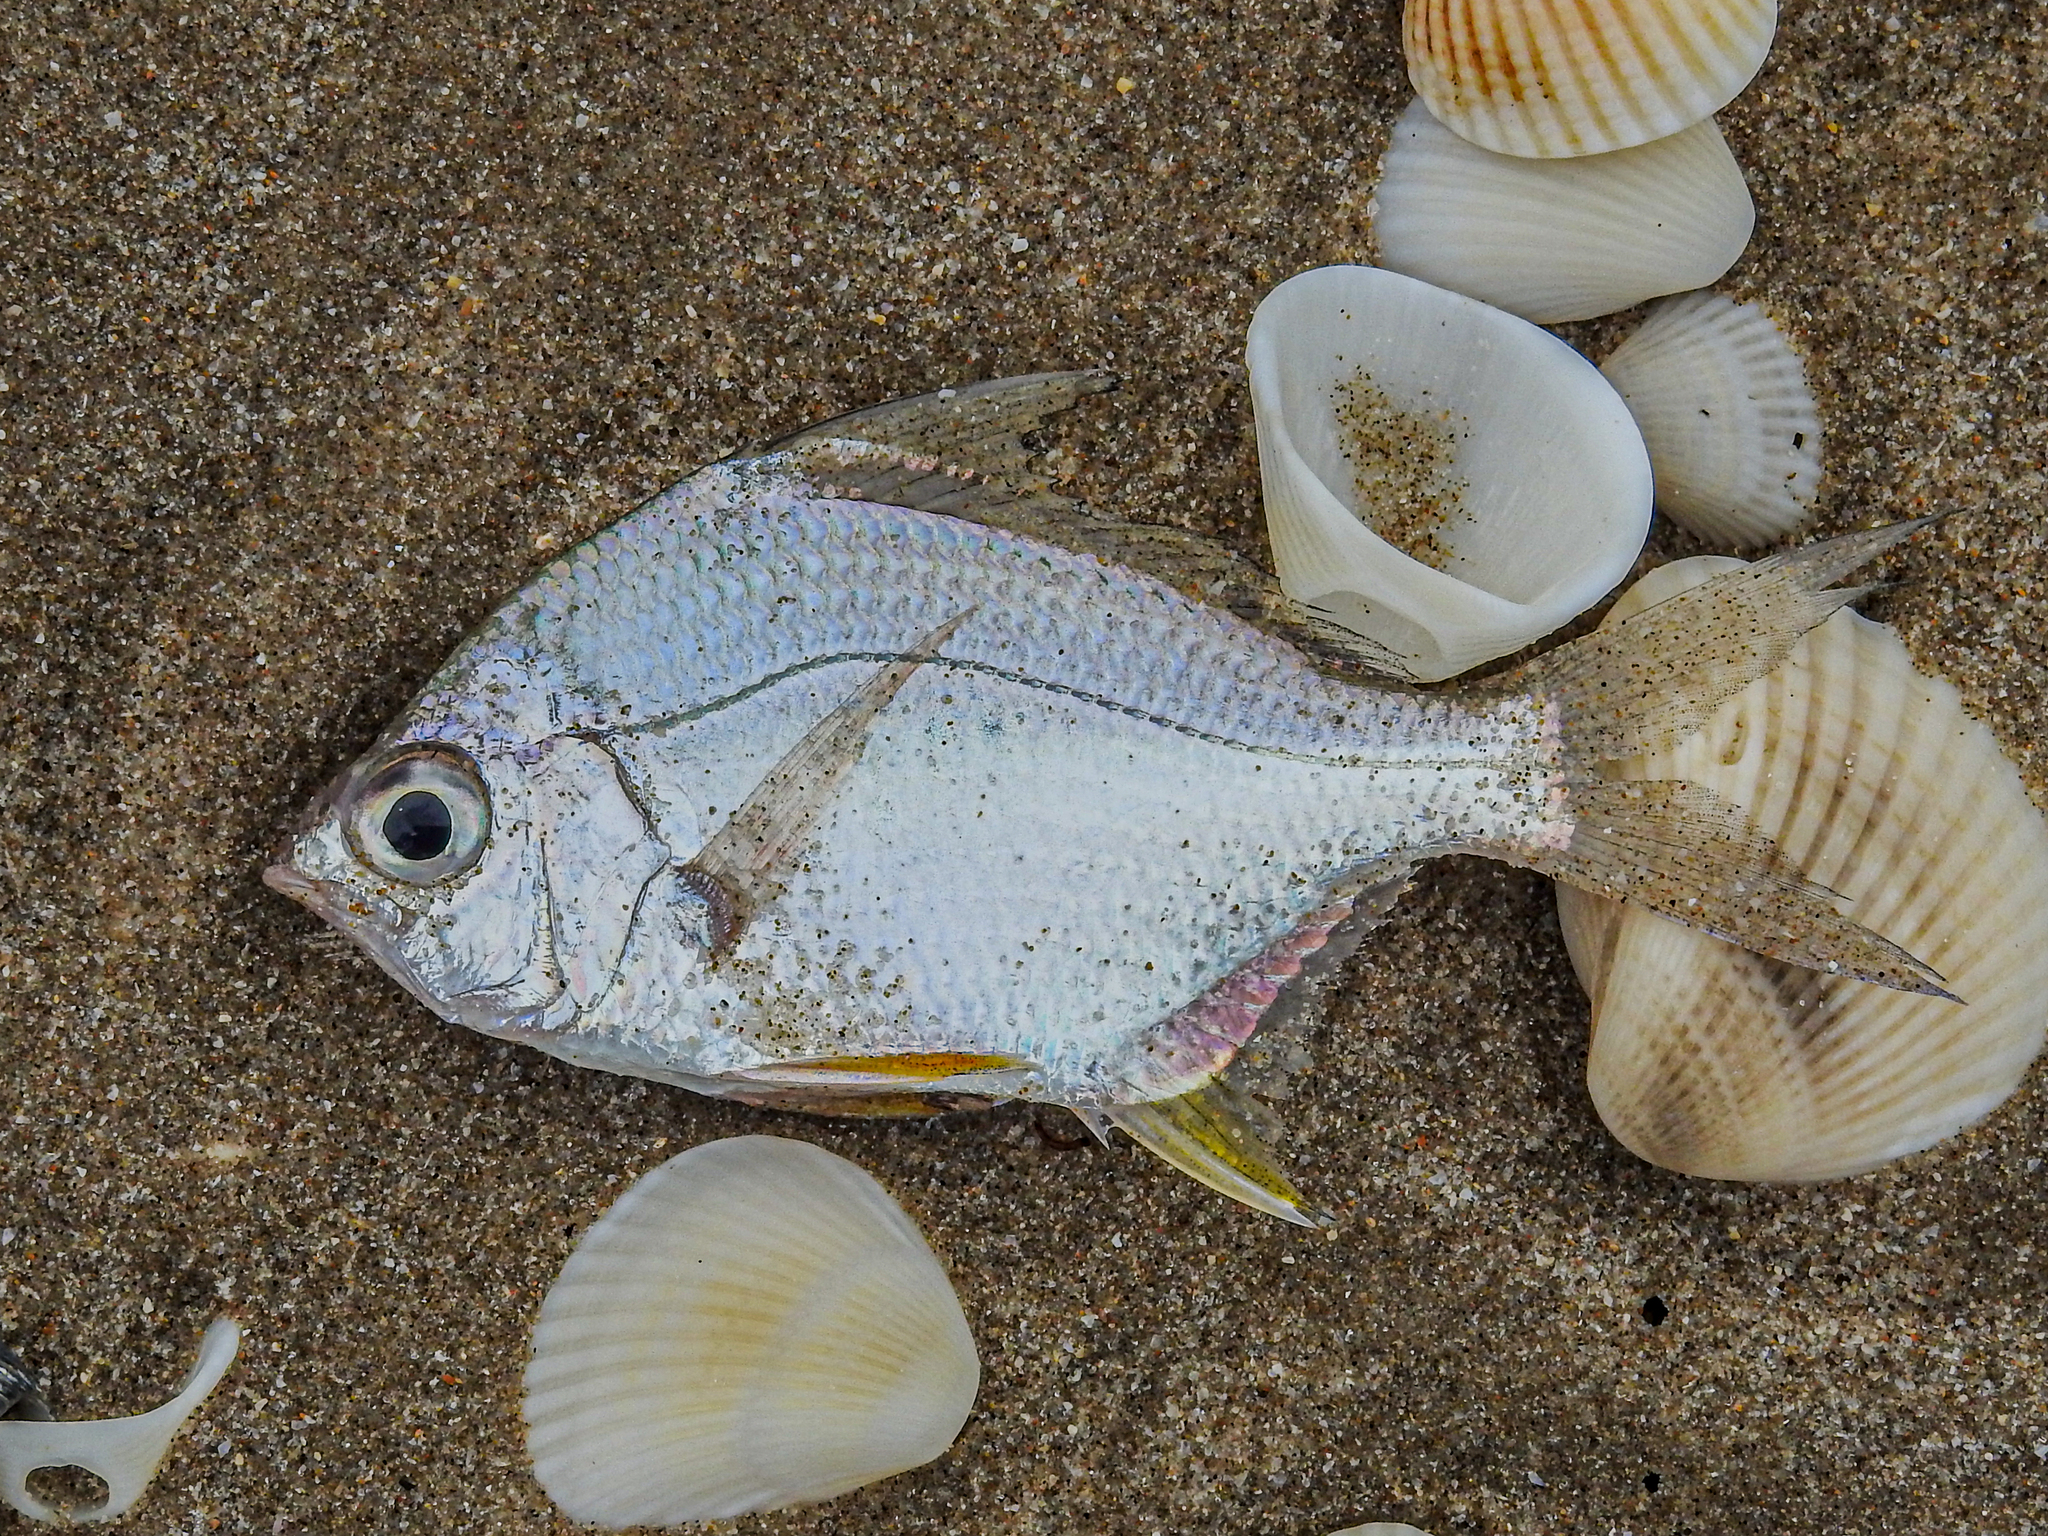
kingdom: Animalia
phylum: Chordata
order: Perciformes
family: Gerreidae
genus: Diapterus
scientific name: Diapterus auratus
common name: Broad shad
